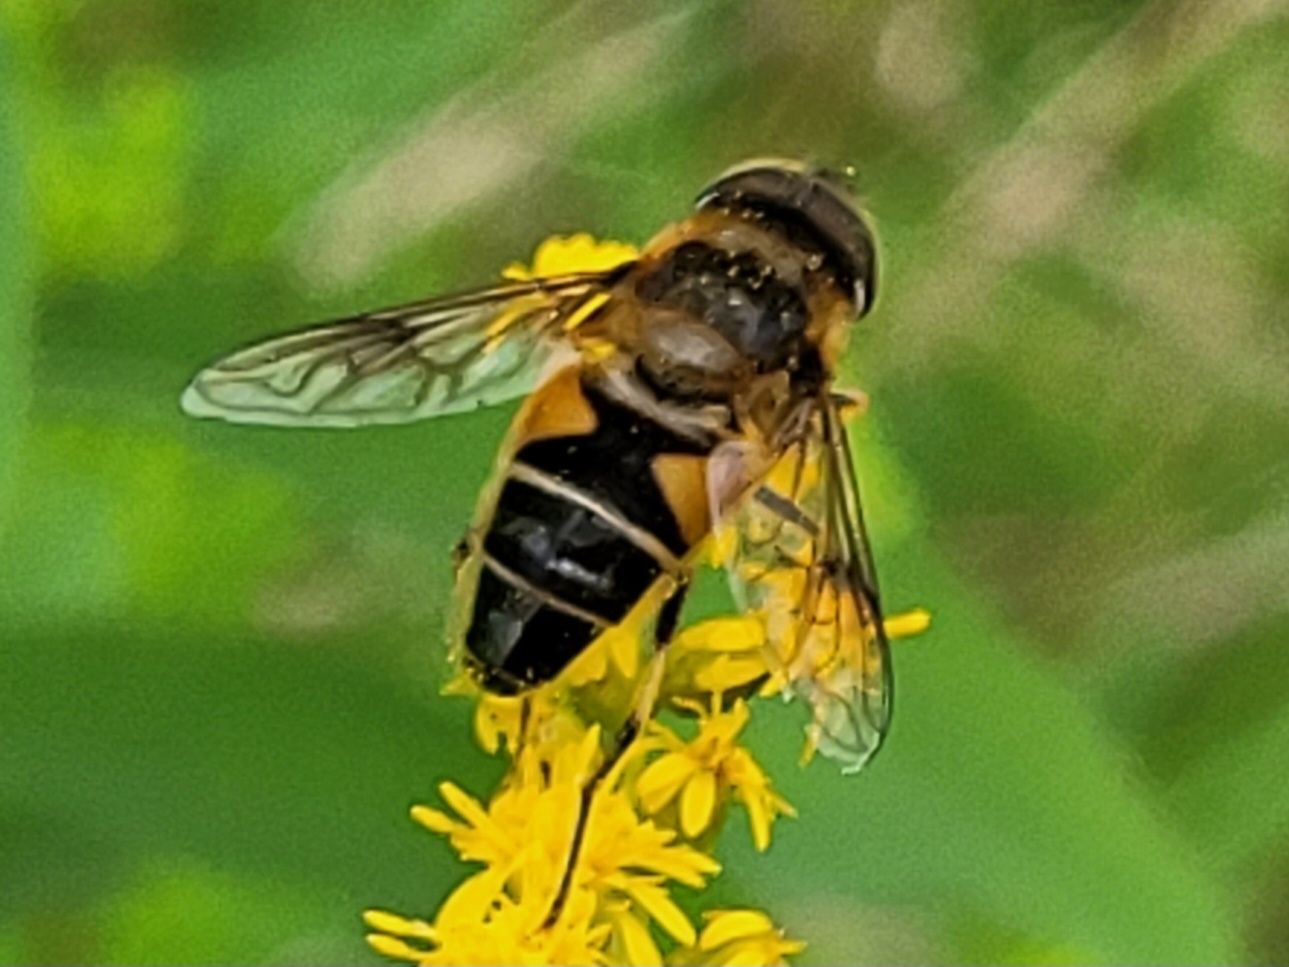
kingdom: Animalia
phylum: Arthropoda
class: Insecta
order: Diptera
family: Syrphidae
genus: Eristalis
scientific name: Eristalis pertinax
